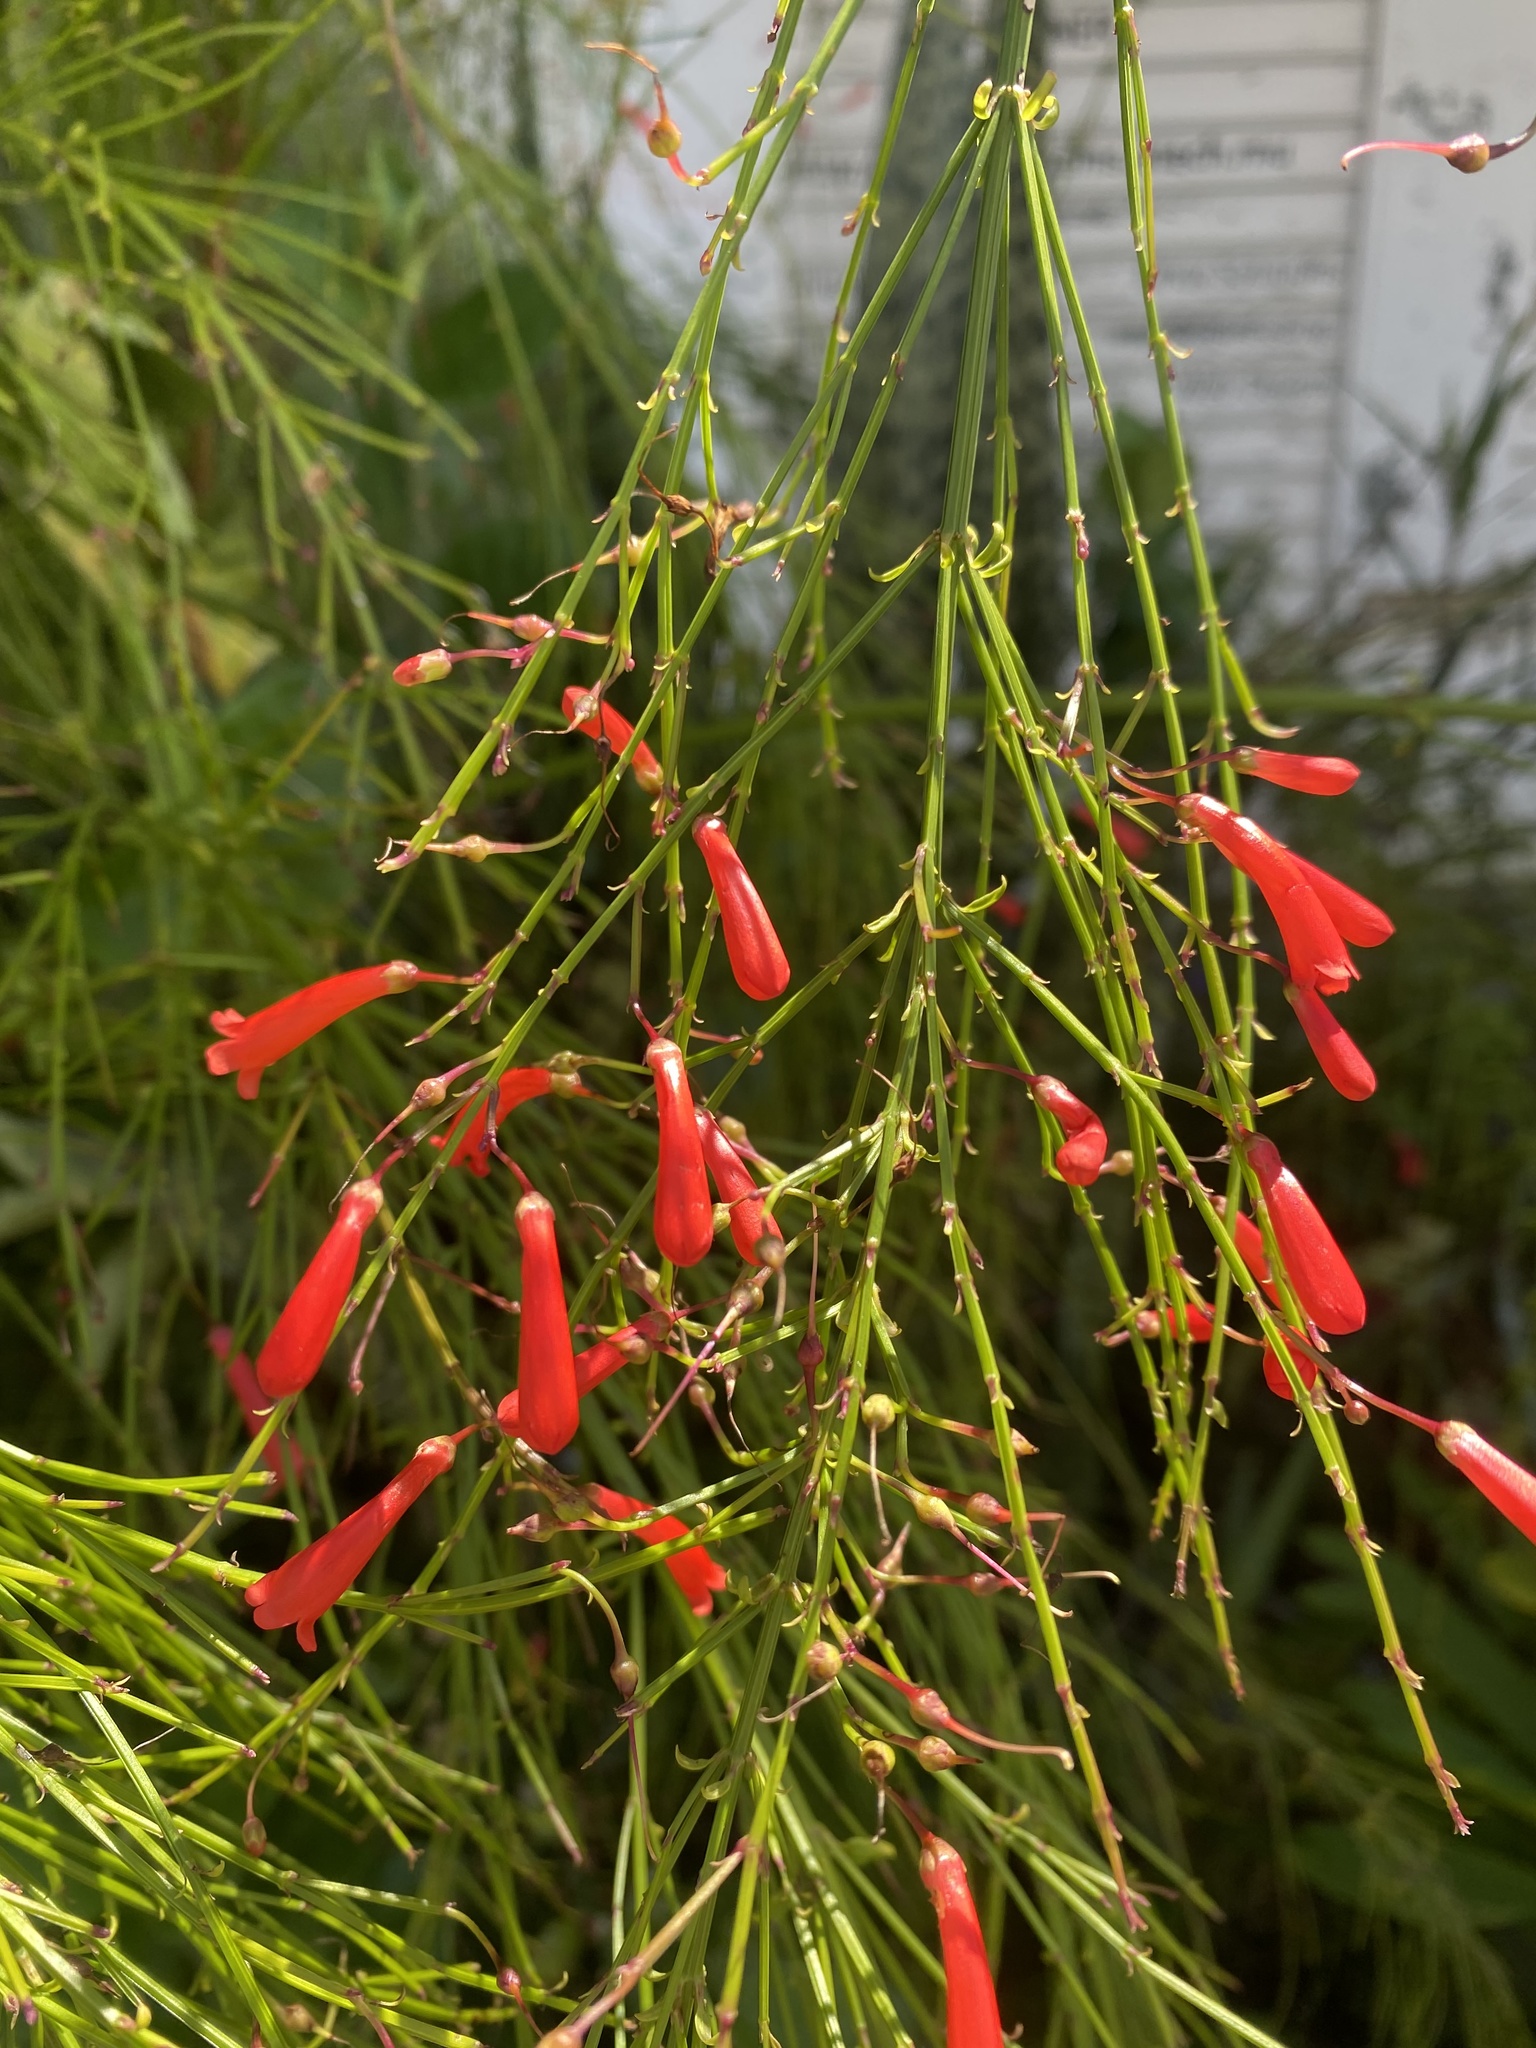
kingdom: Plantae
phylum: Tracheophyta
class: Magnoliopsida
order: Lamiales
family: Plantaginaceae
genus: Russelia
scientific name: Russelia equisetiformis
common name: Fountainbush
